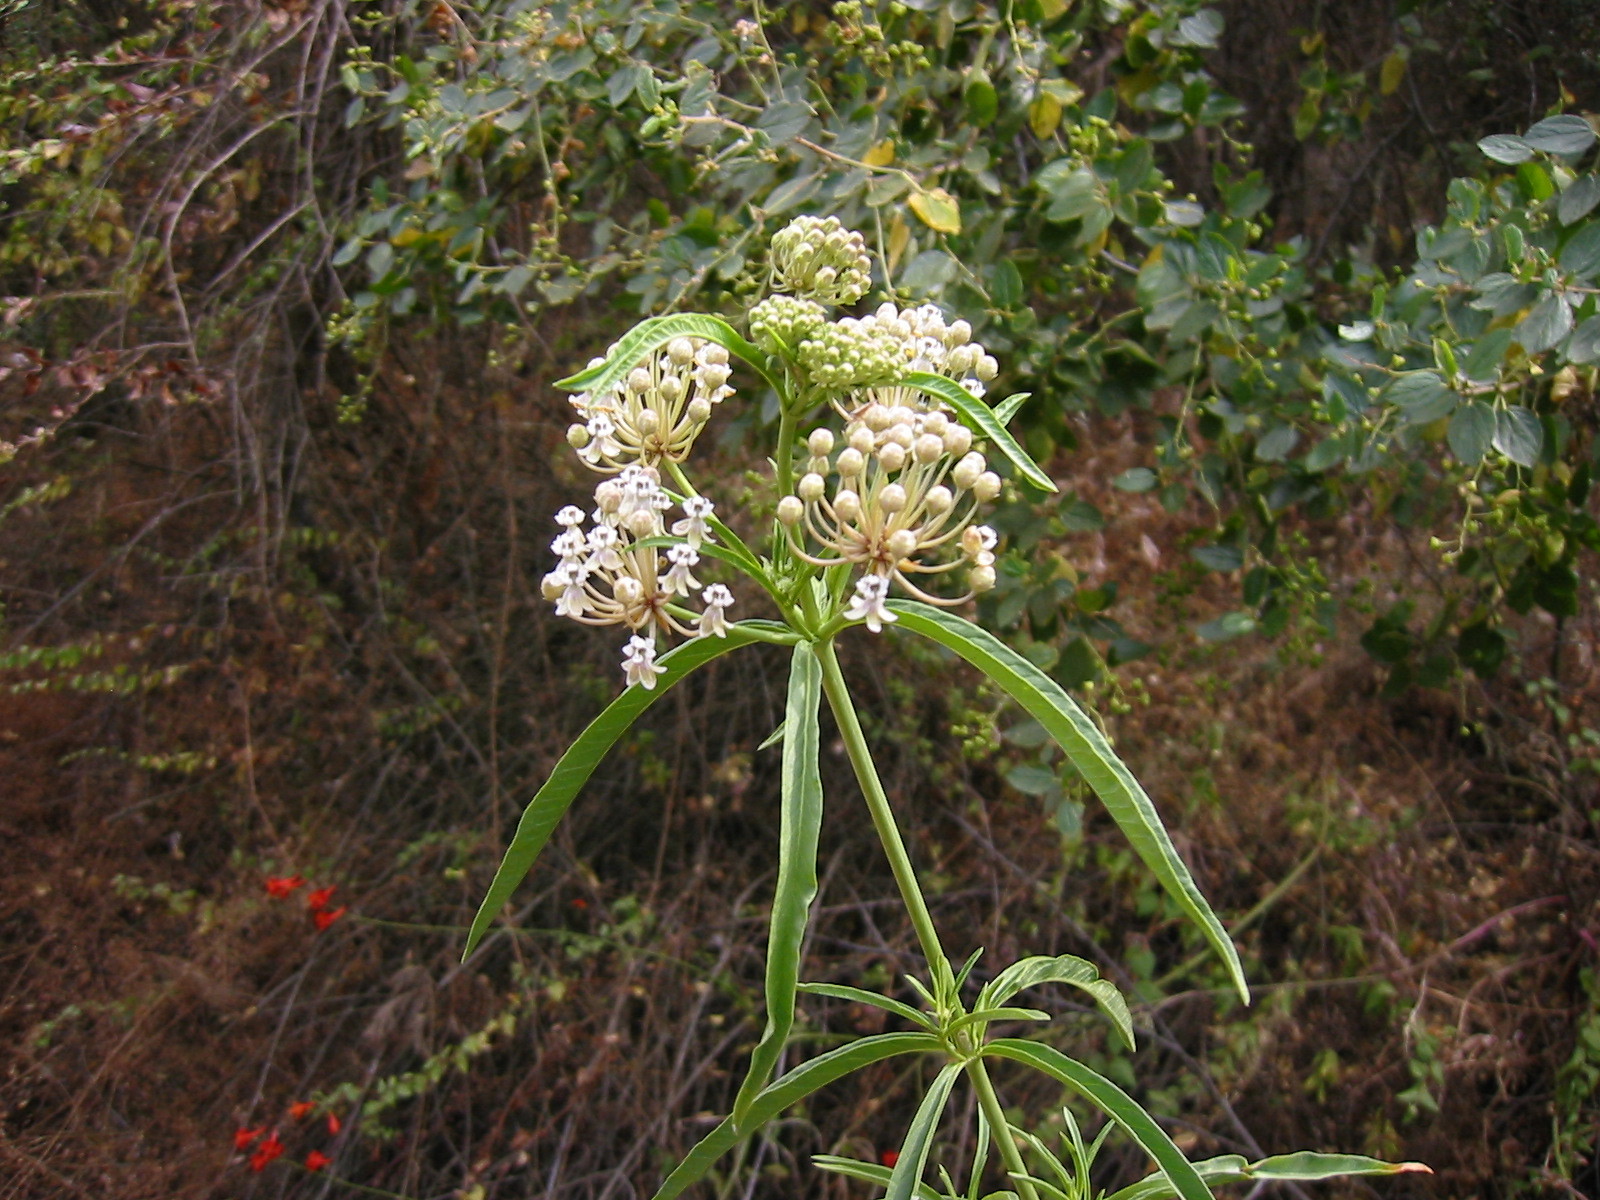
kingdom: Plantae
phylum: Tracheophyta
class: Magnoliopsida
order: Gentianales
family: Apocynaceae
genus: Asclepias
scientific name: Asclepias fascicularis
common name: Mexican milkweed
